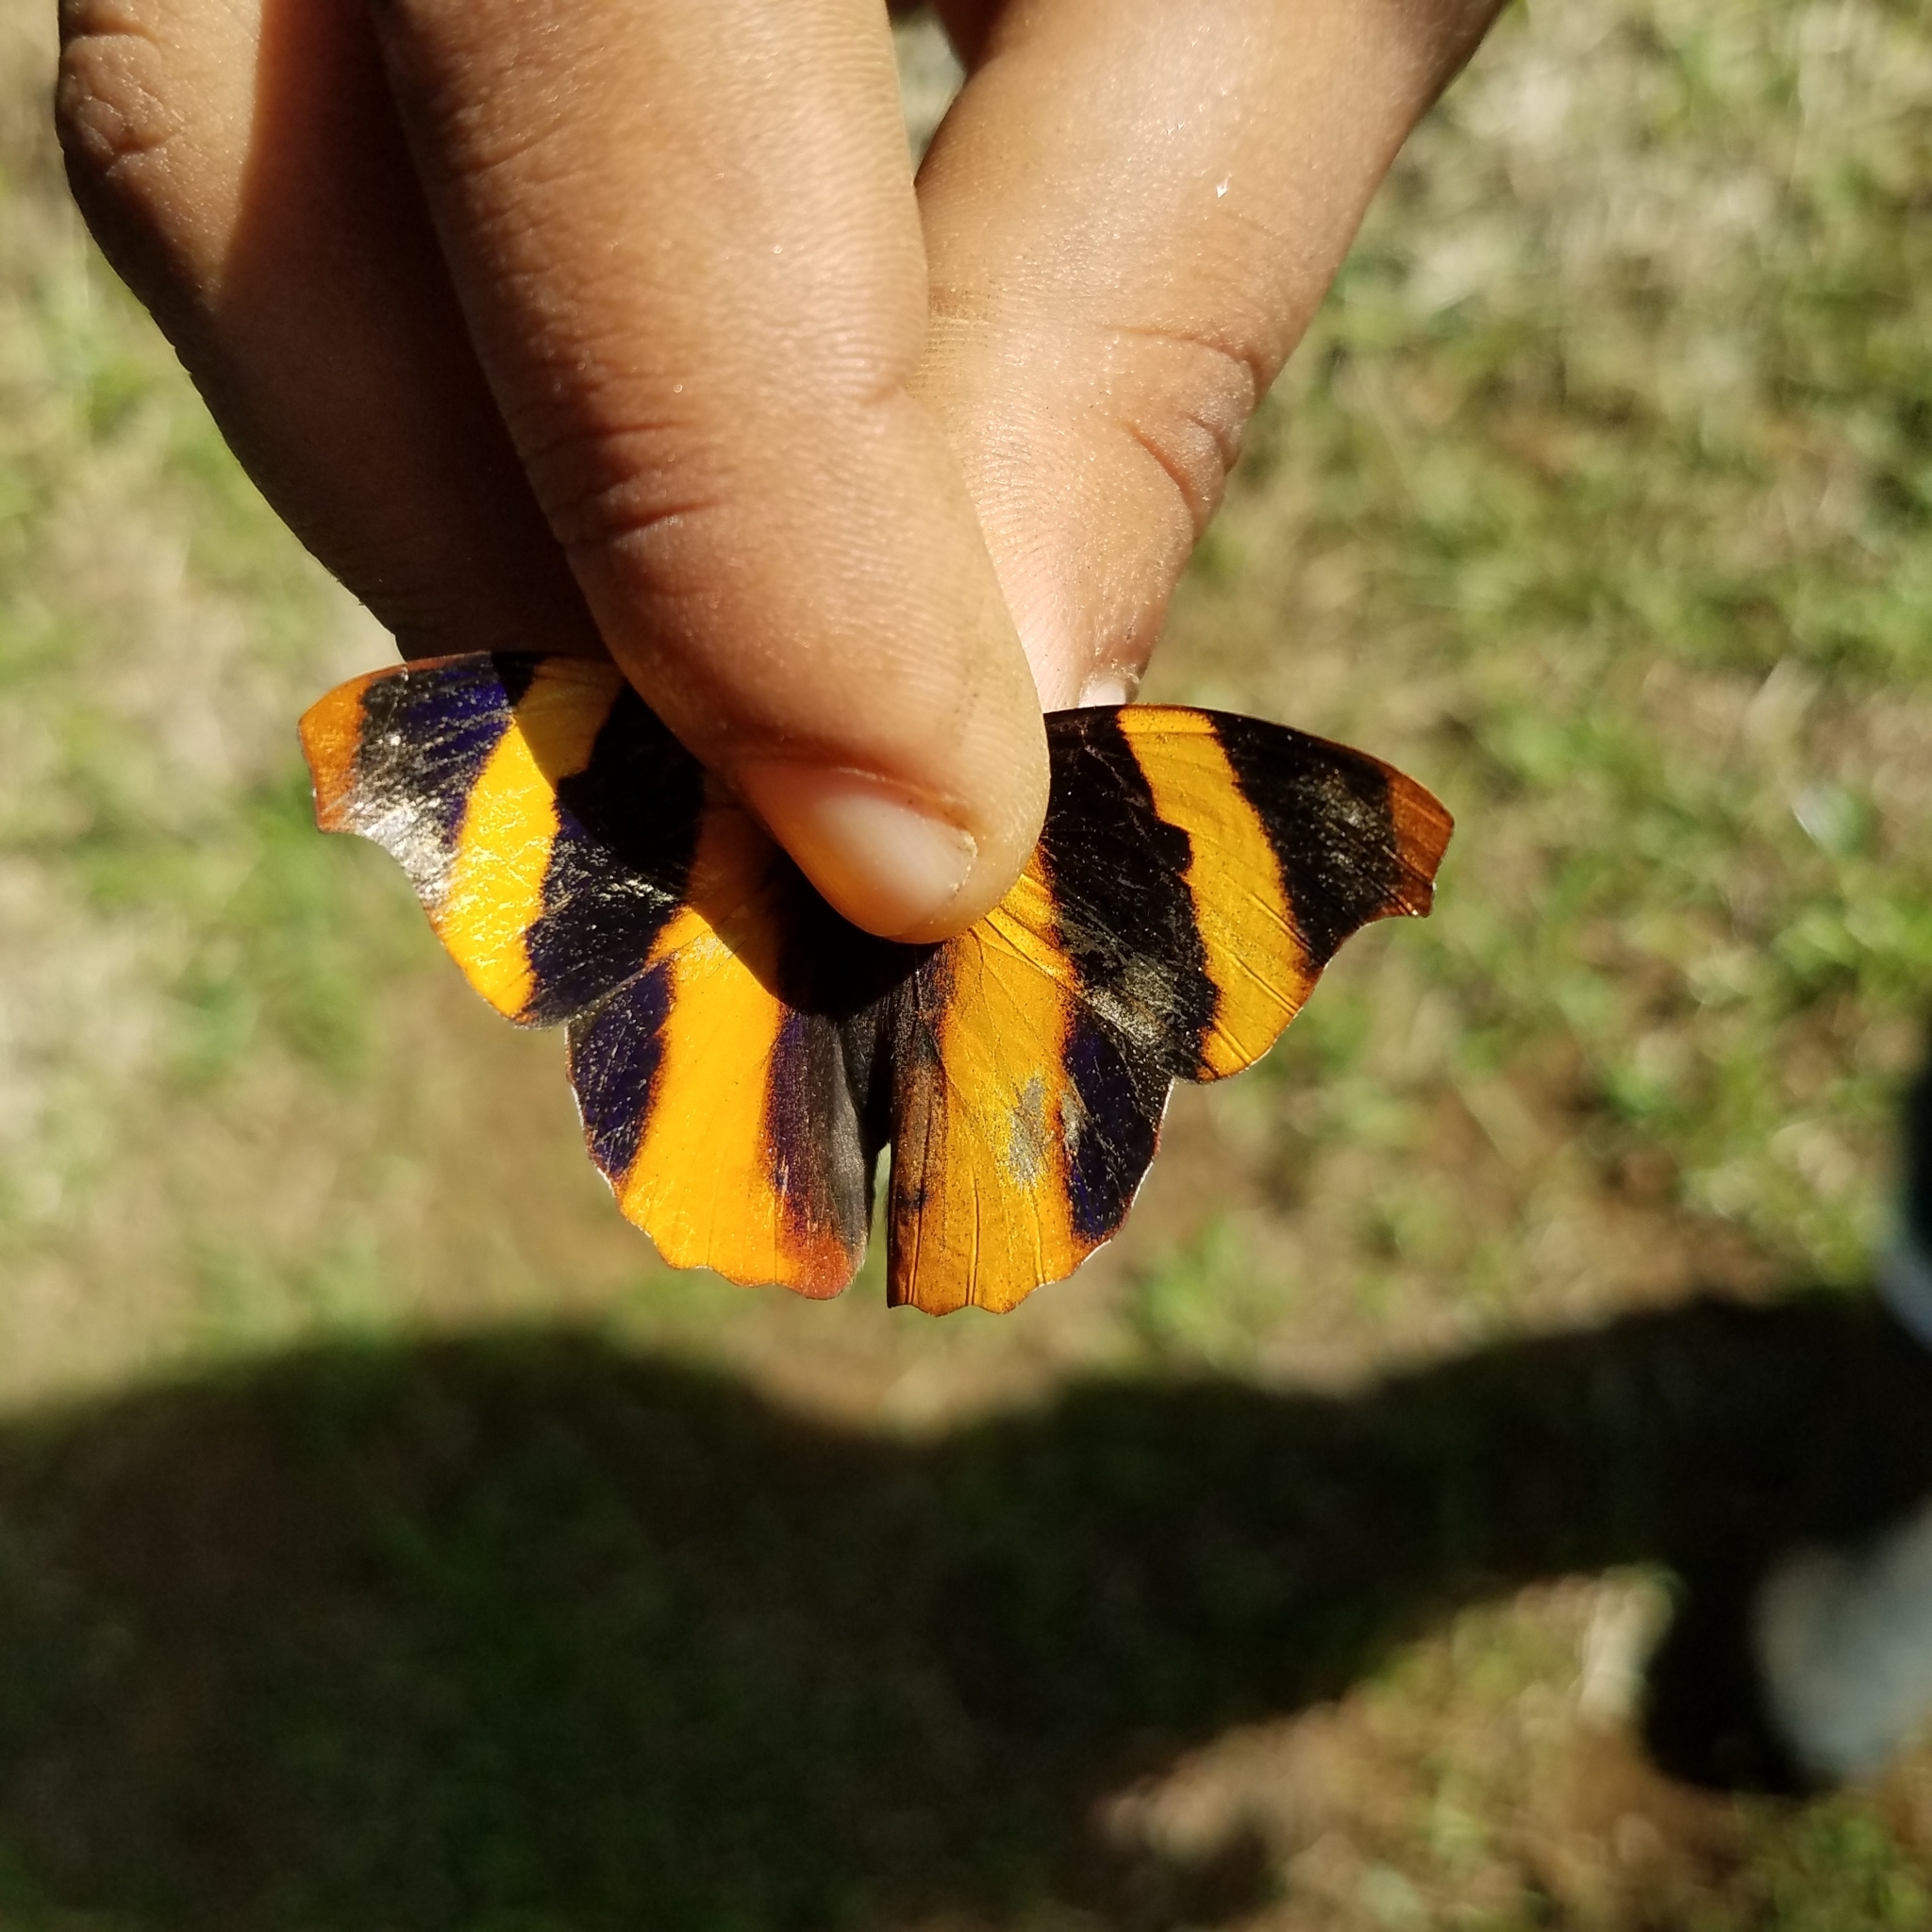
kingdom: Animalia
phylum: Arthropoda
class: Insecta
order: Lepidoptera
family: Nymphalidae
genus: Epiphile
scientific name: Epiphile adrasta
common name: Common banner
